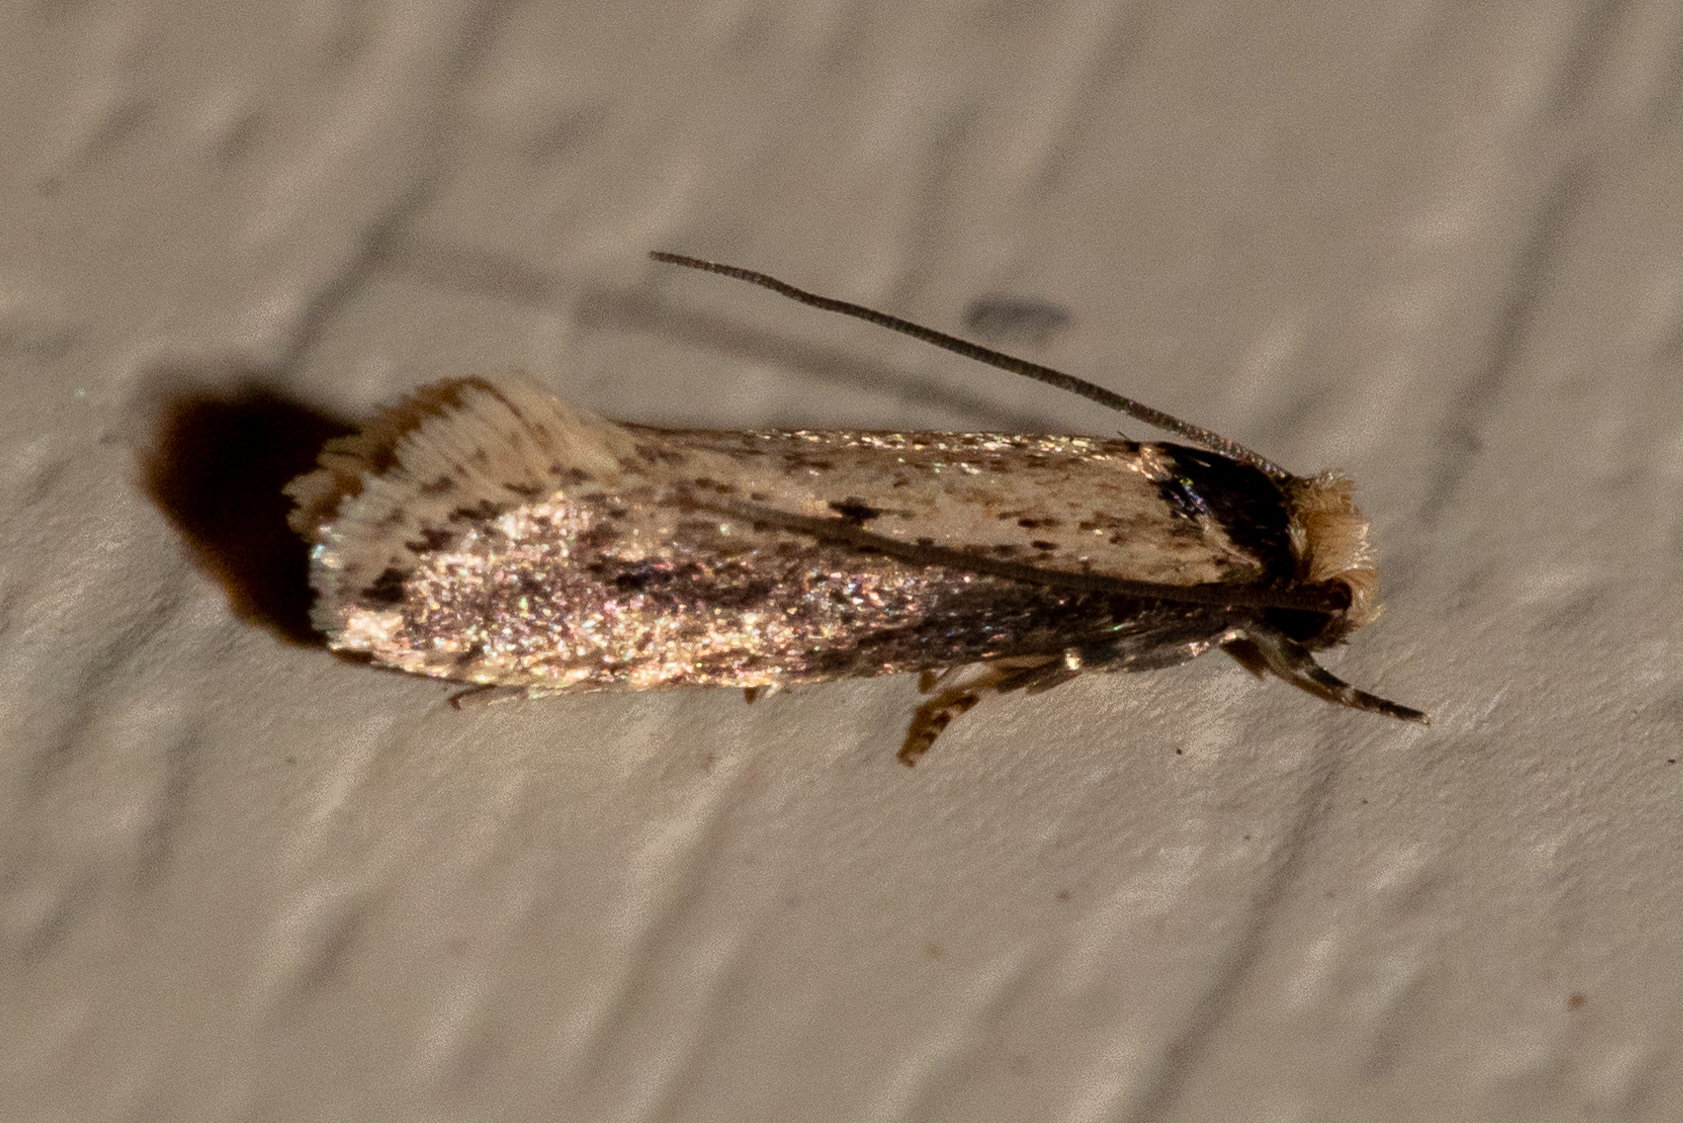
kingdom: Animalia
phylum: Arthropoda
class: Insecta
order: Lepidoptera
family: Tineidae
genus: Tinea
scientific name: Tinea apicimaculella
